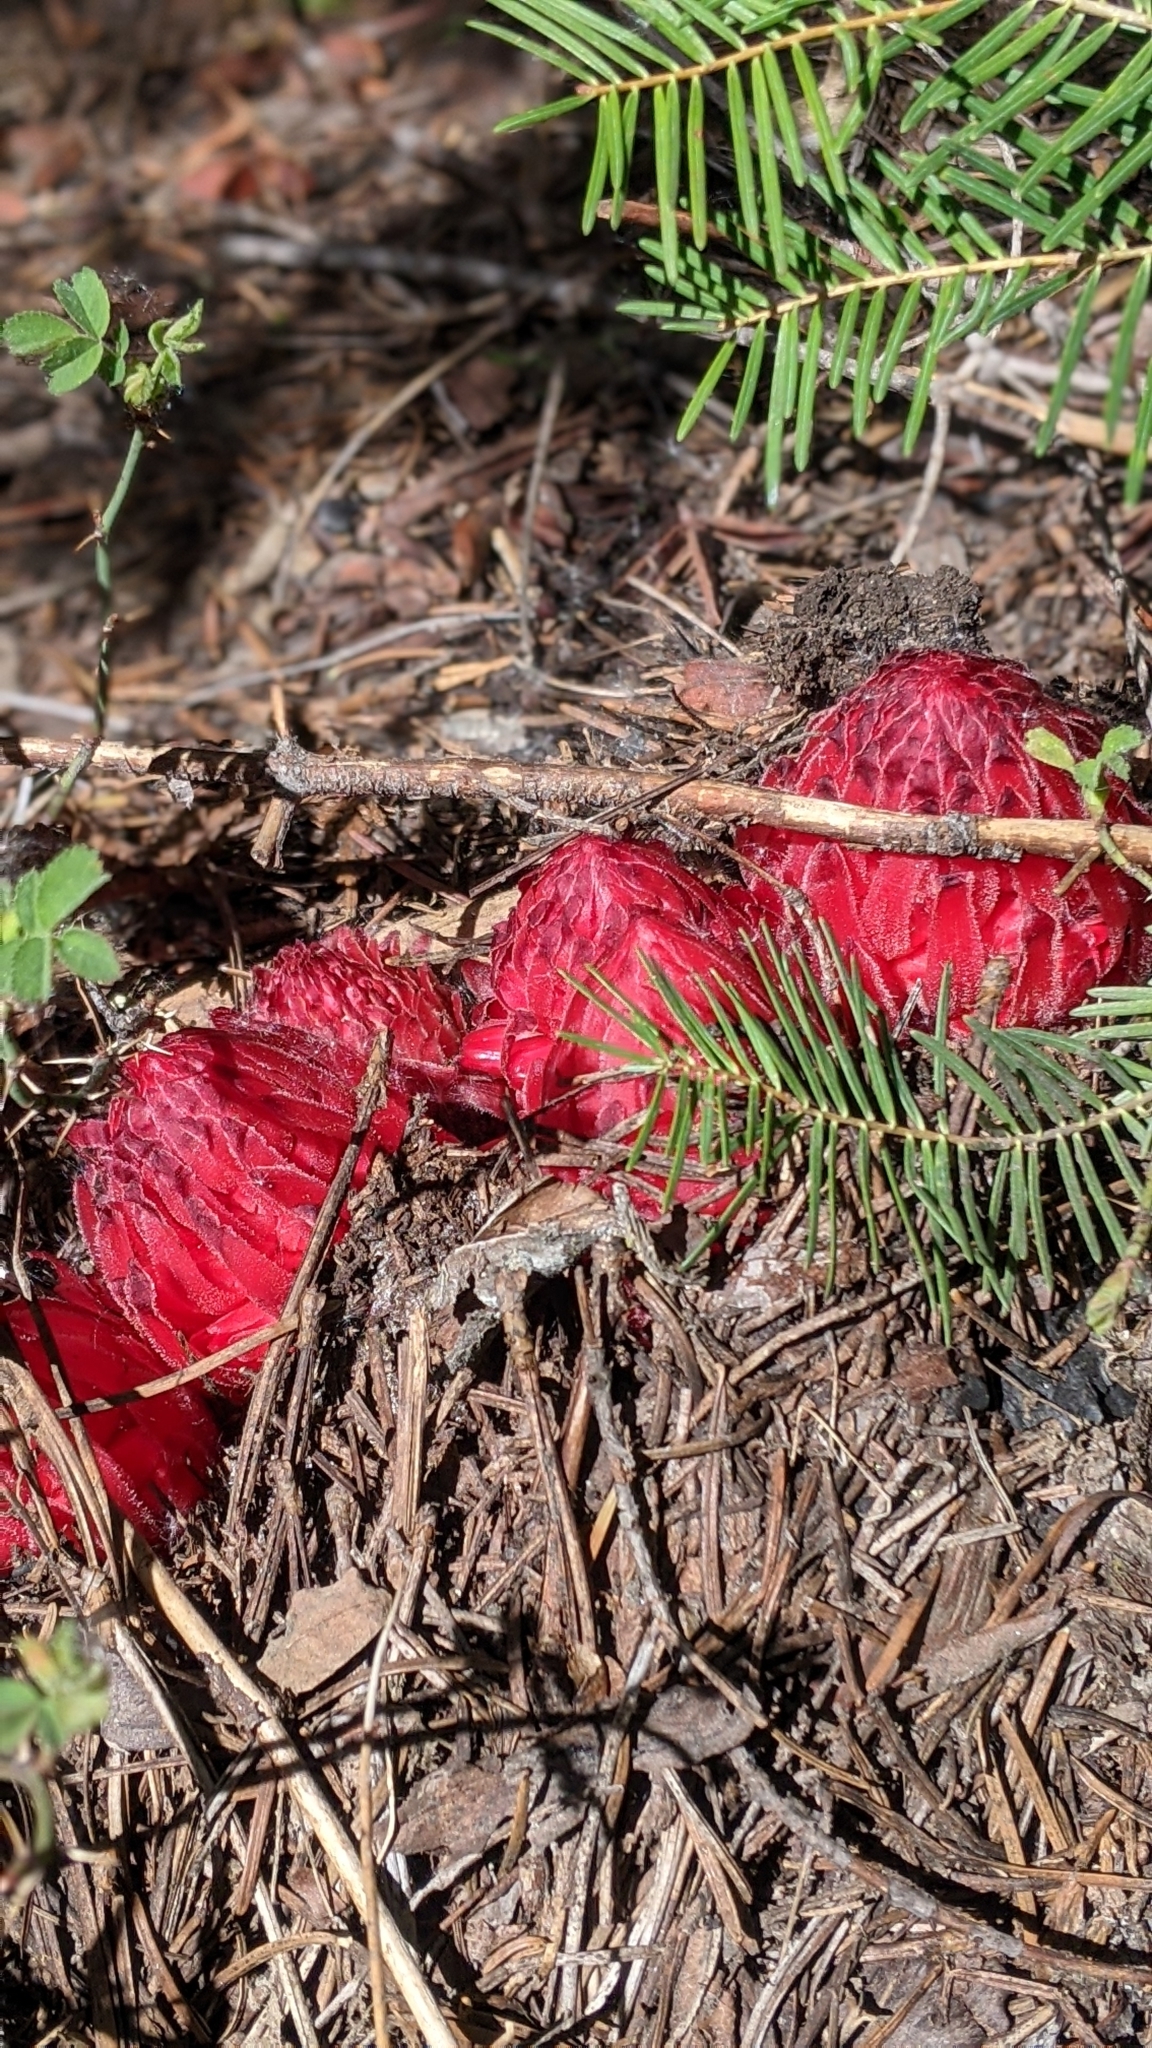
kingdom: Plantae
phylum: Tracheophyta
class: Magnoliopsida
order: Ericales
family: Ericaceae
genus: Sarcodes
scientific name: Sarcodes sanguinea
